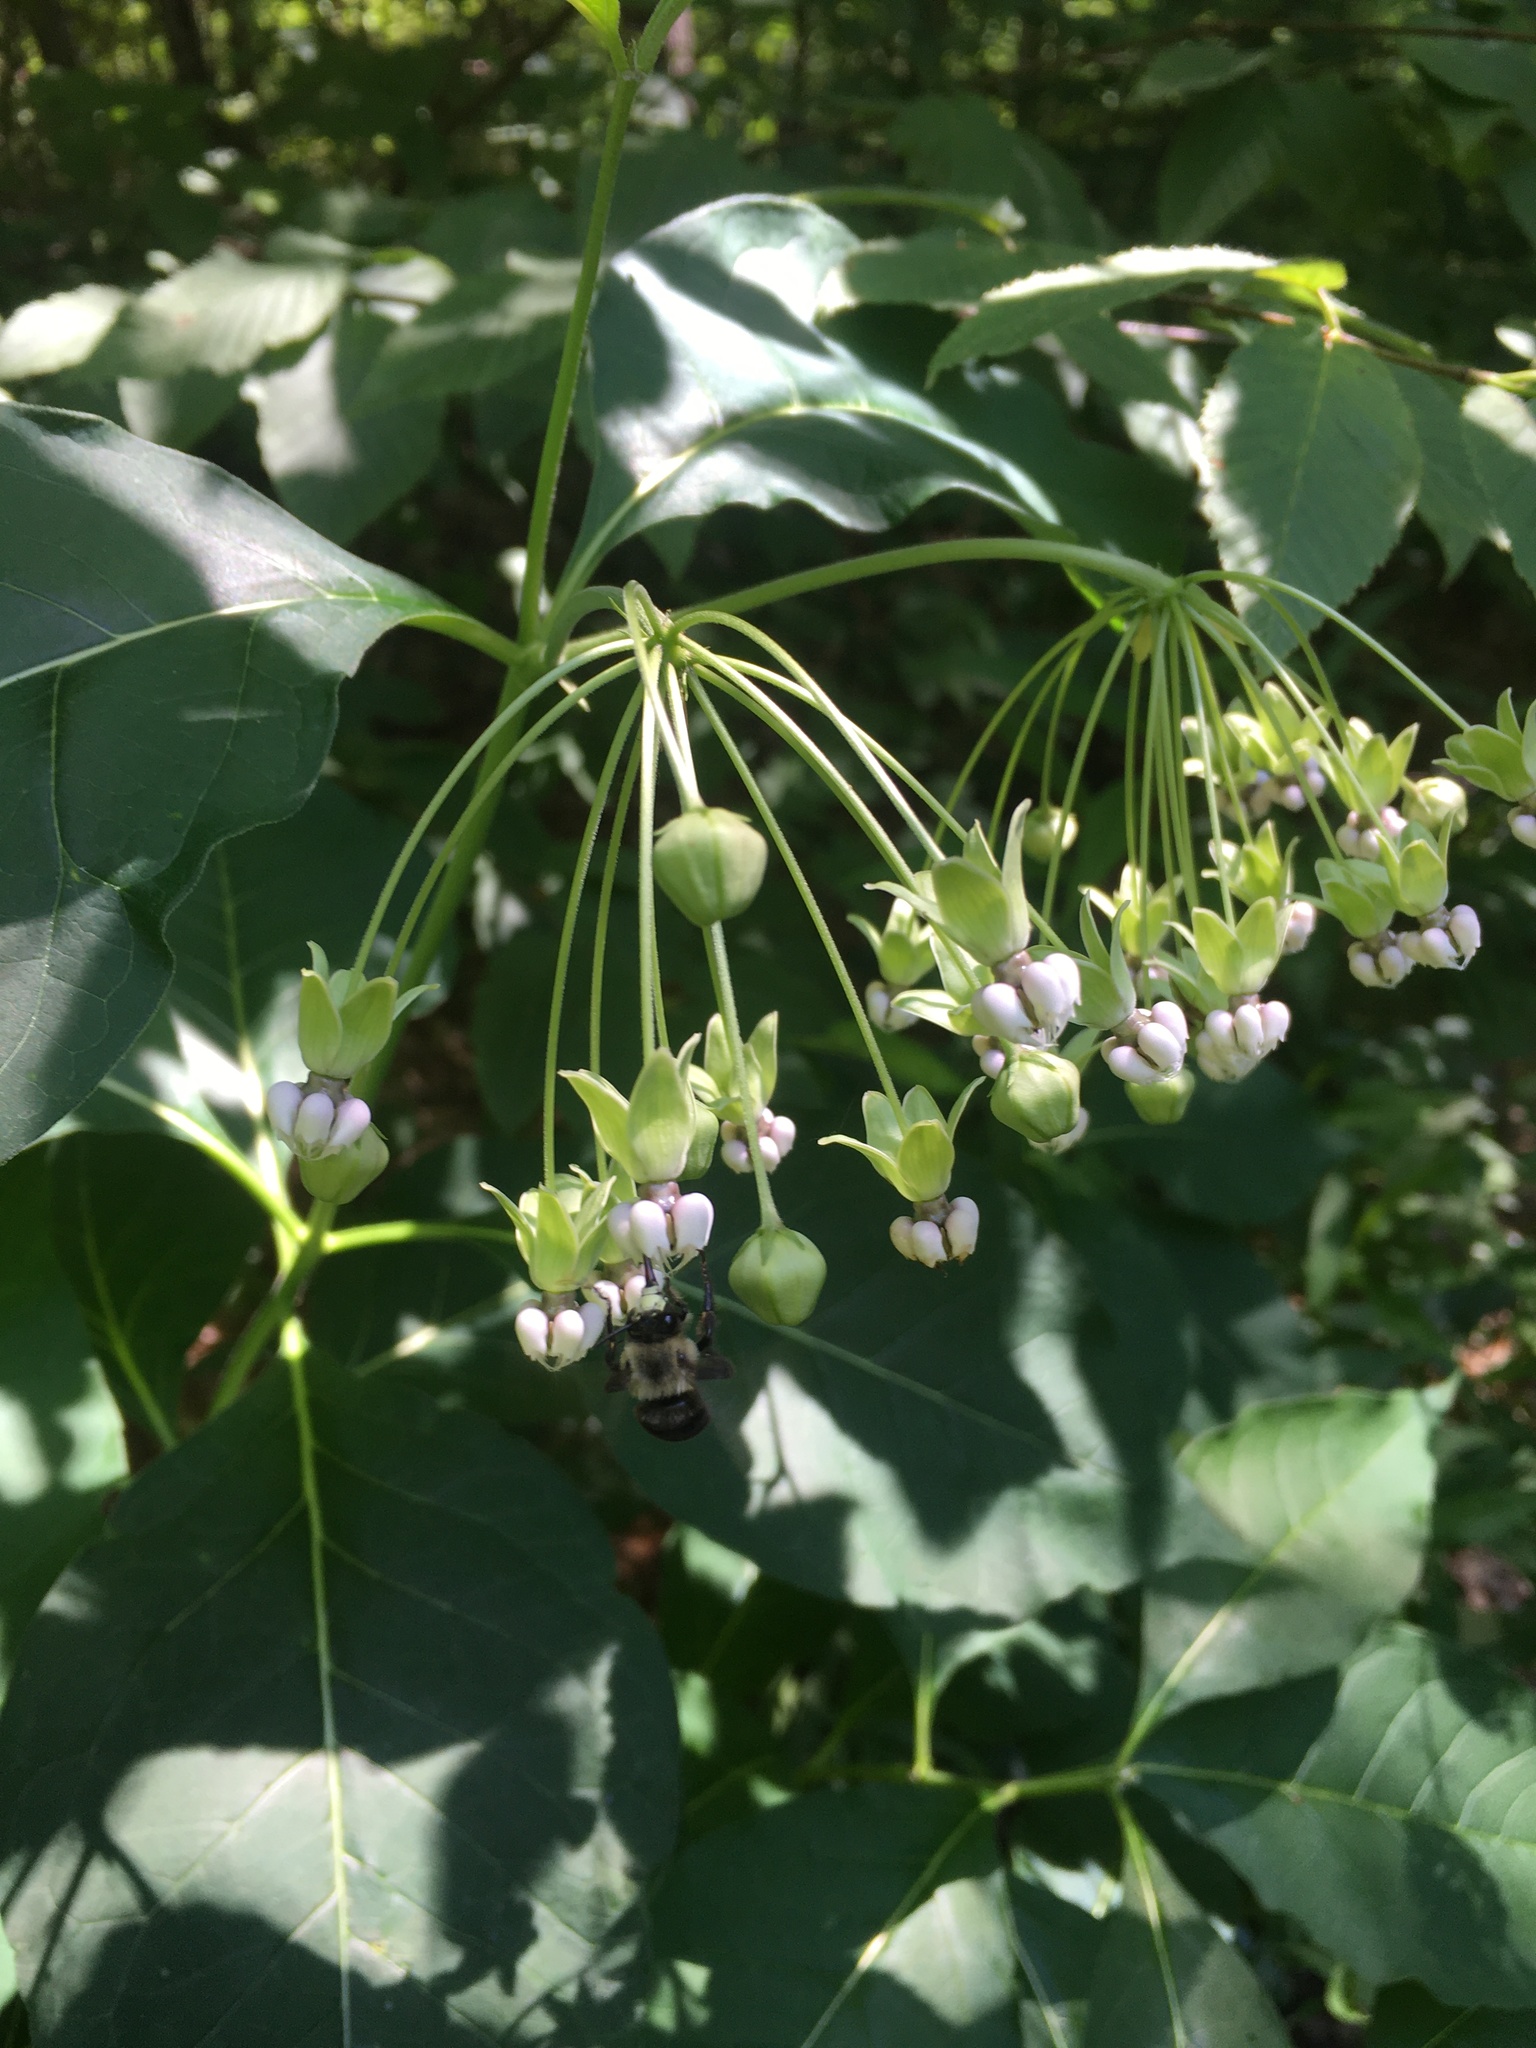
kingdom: Plantae
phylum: Tracheophyta
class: Magnoliopsida
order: Gentianales
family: Apocynaceae
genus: Asclepias
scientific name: Asclepias exaltata
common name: Poke milkweed
